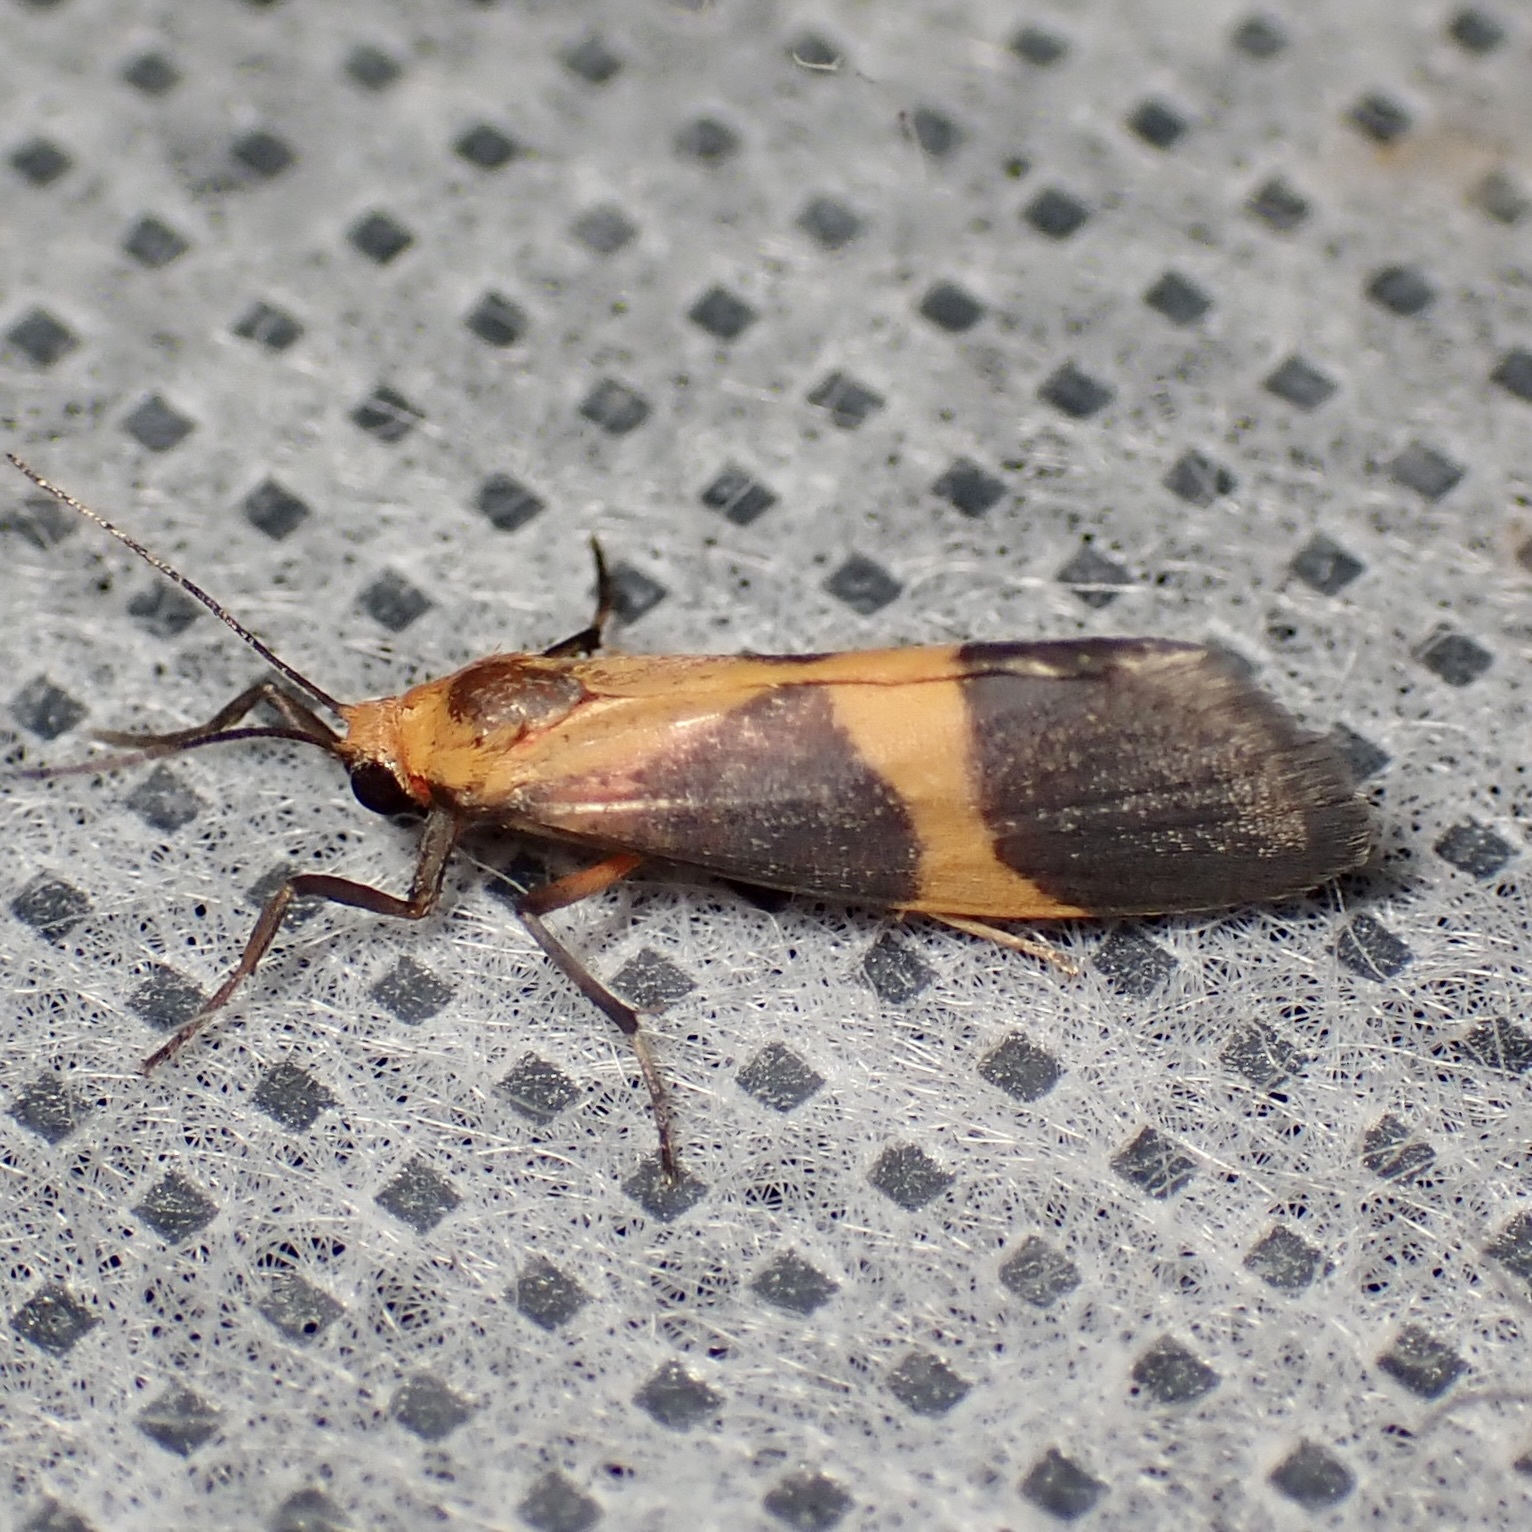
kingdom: Animalia
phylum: Arthropoda
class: Insecta
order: Lepidoptera
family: Erebidae
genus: Cisthene
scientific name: Cisthene tenuifascia
